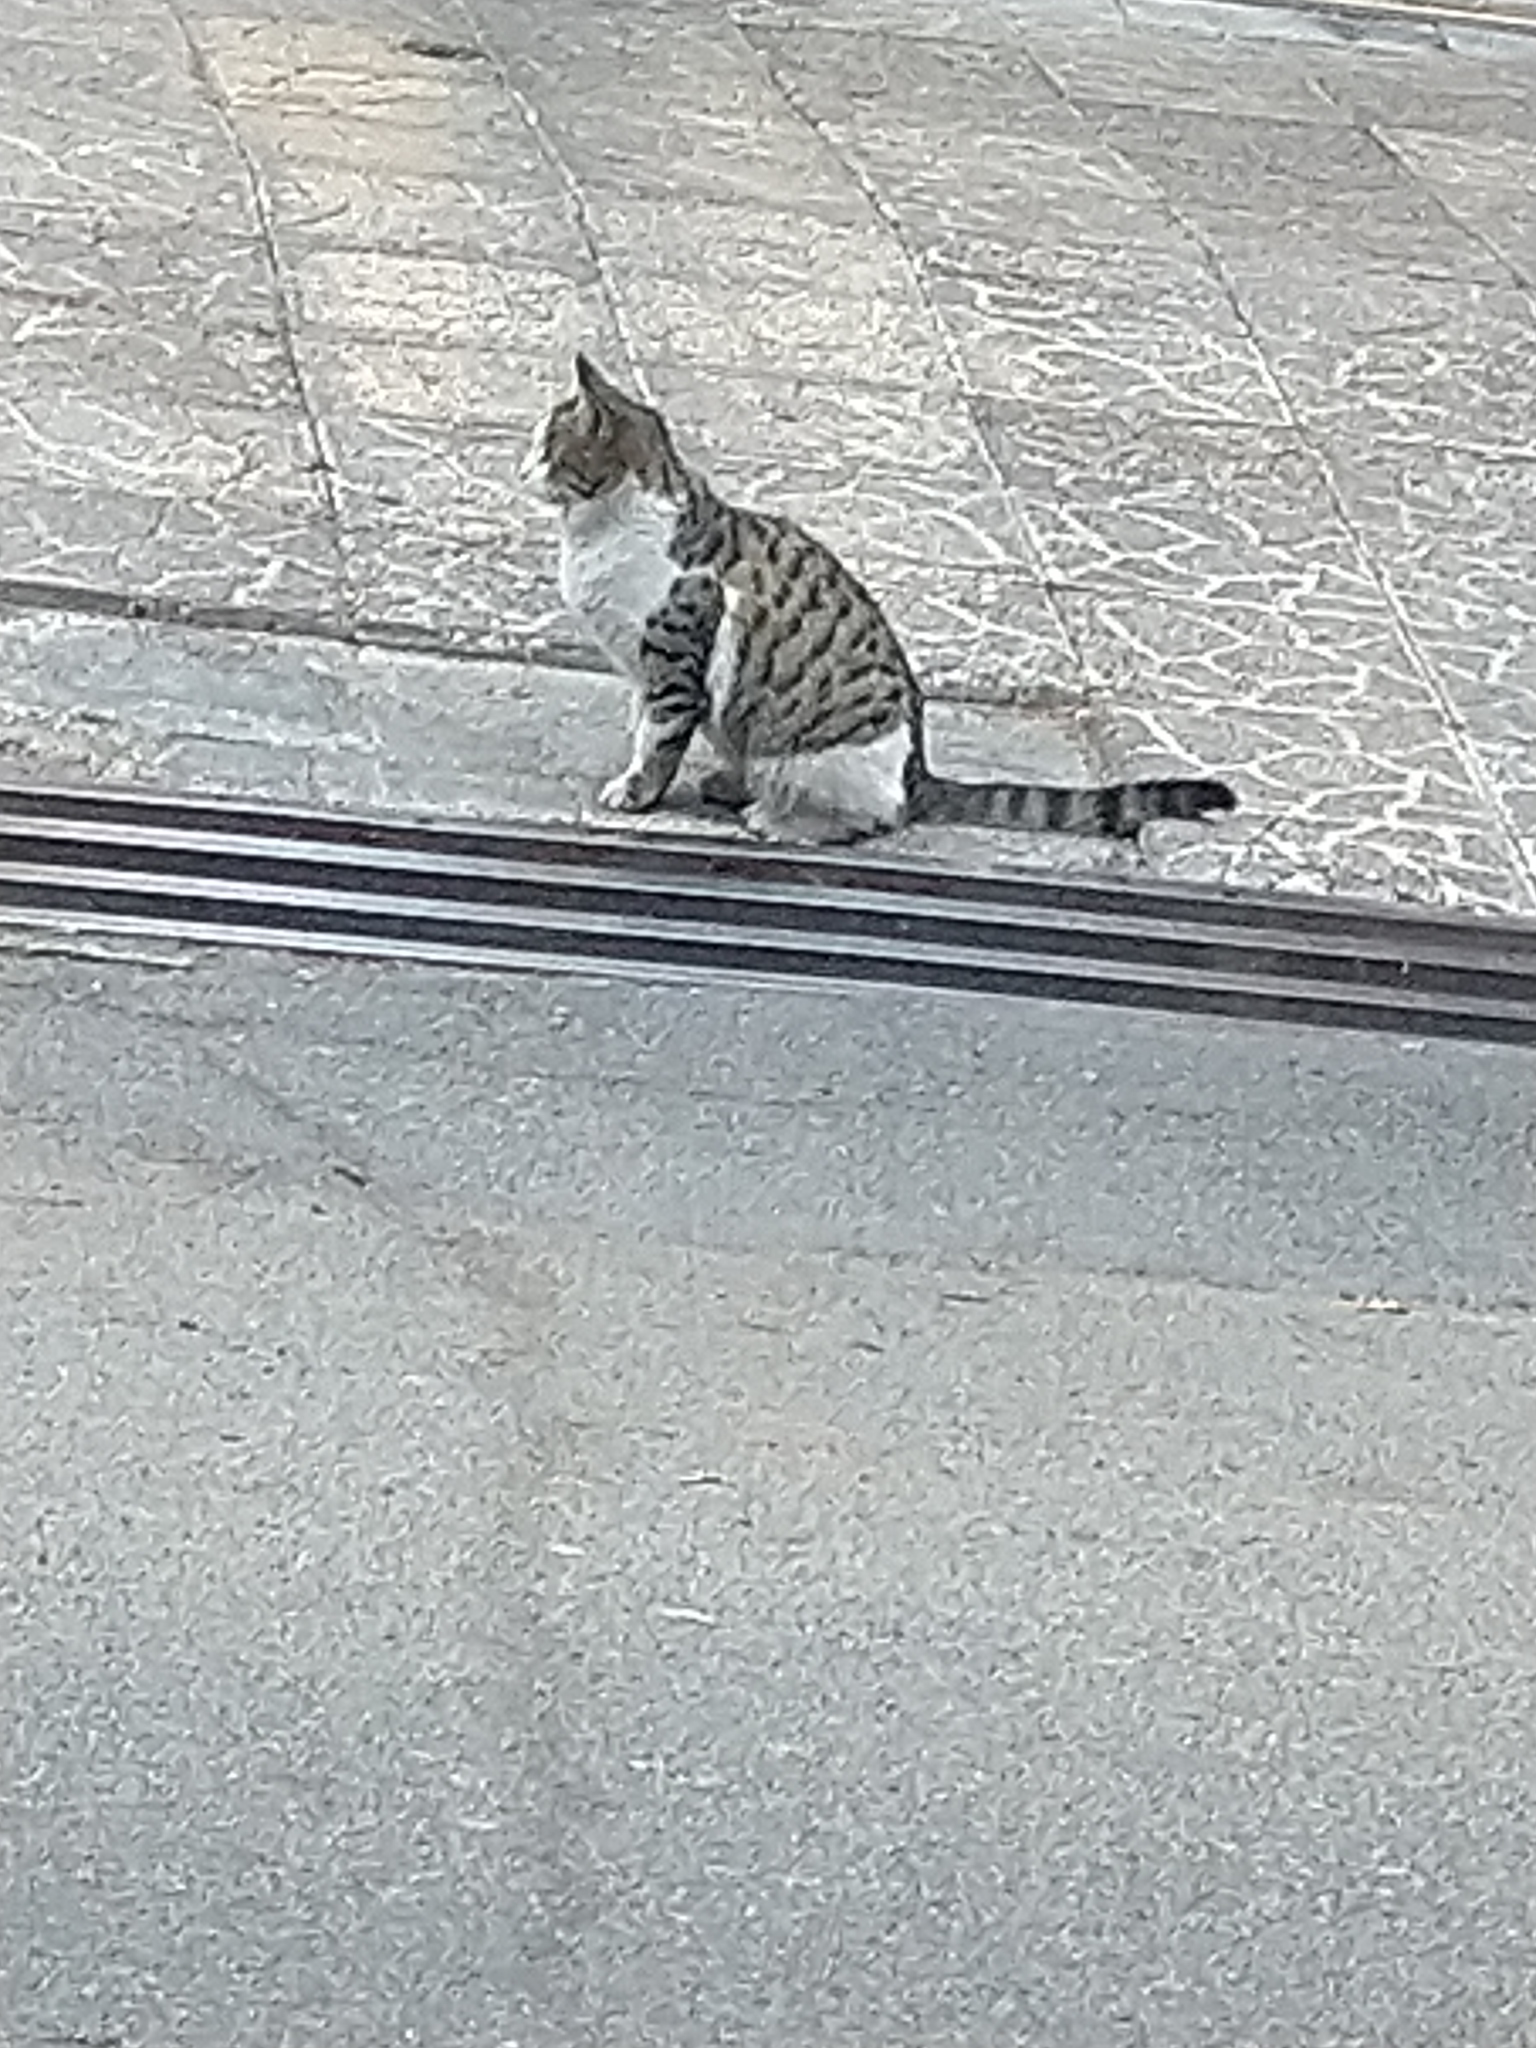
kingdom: Animalia
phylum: Chordata
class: Mammalia
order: Carnivora
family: Felidae
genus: Felis
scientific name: Felis catus
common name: Domestic cat
